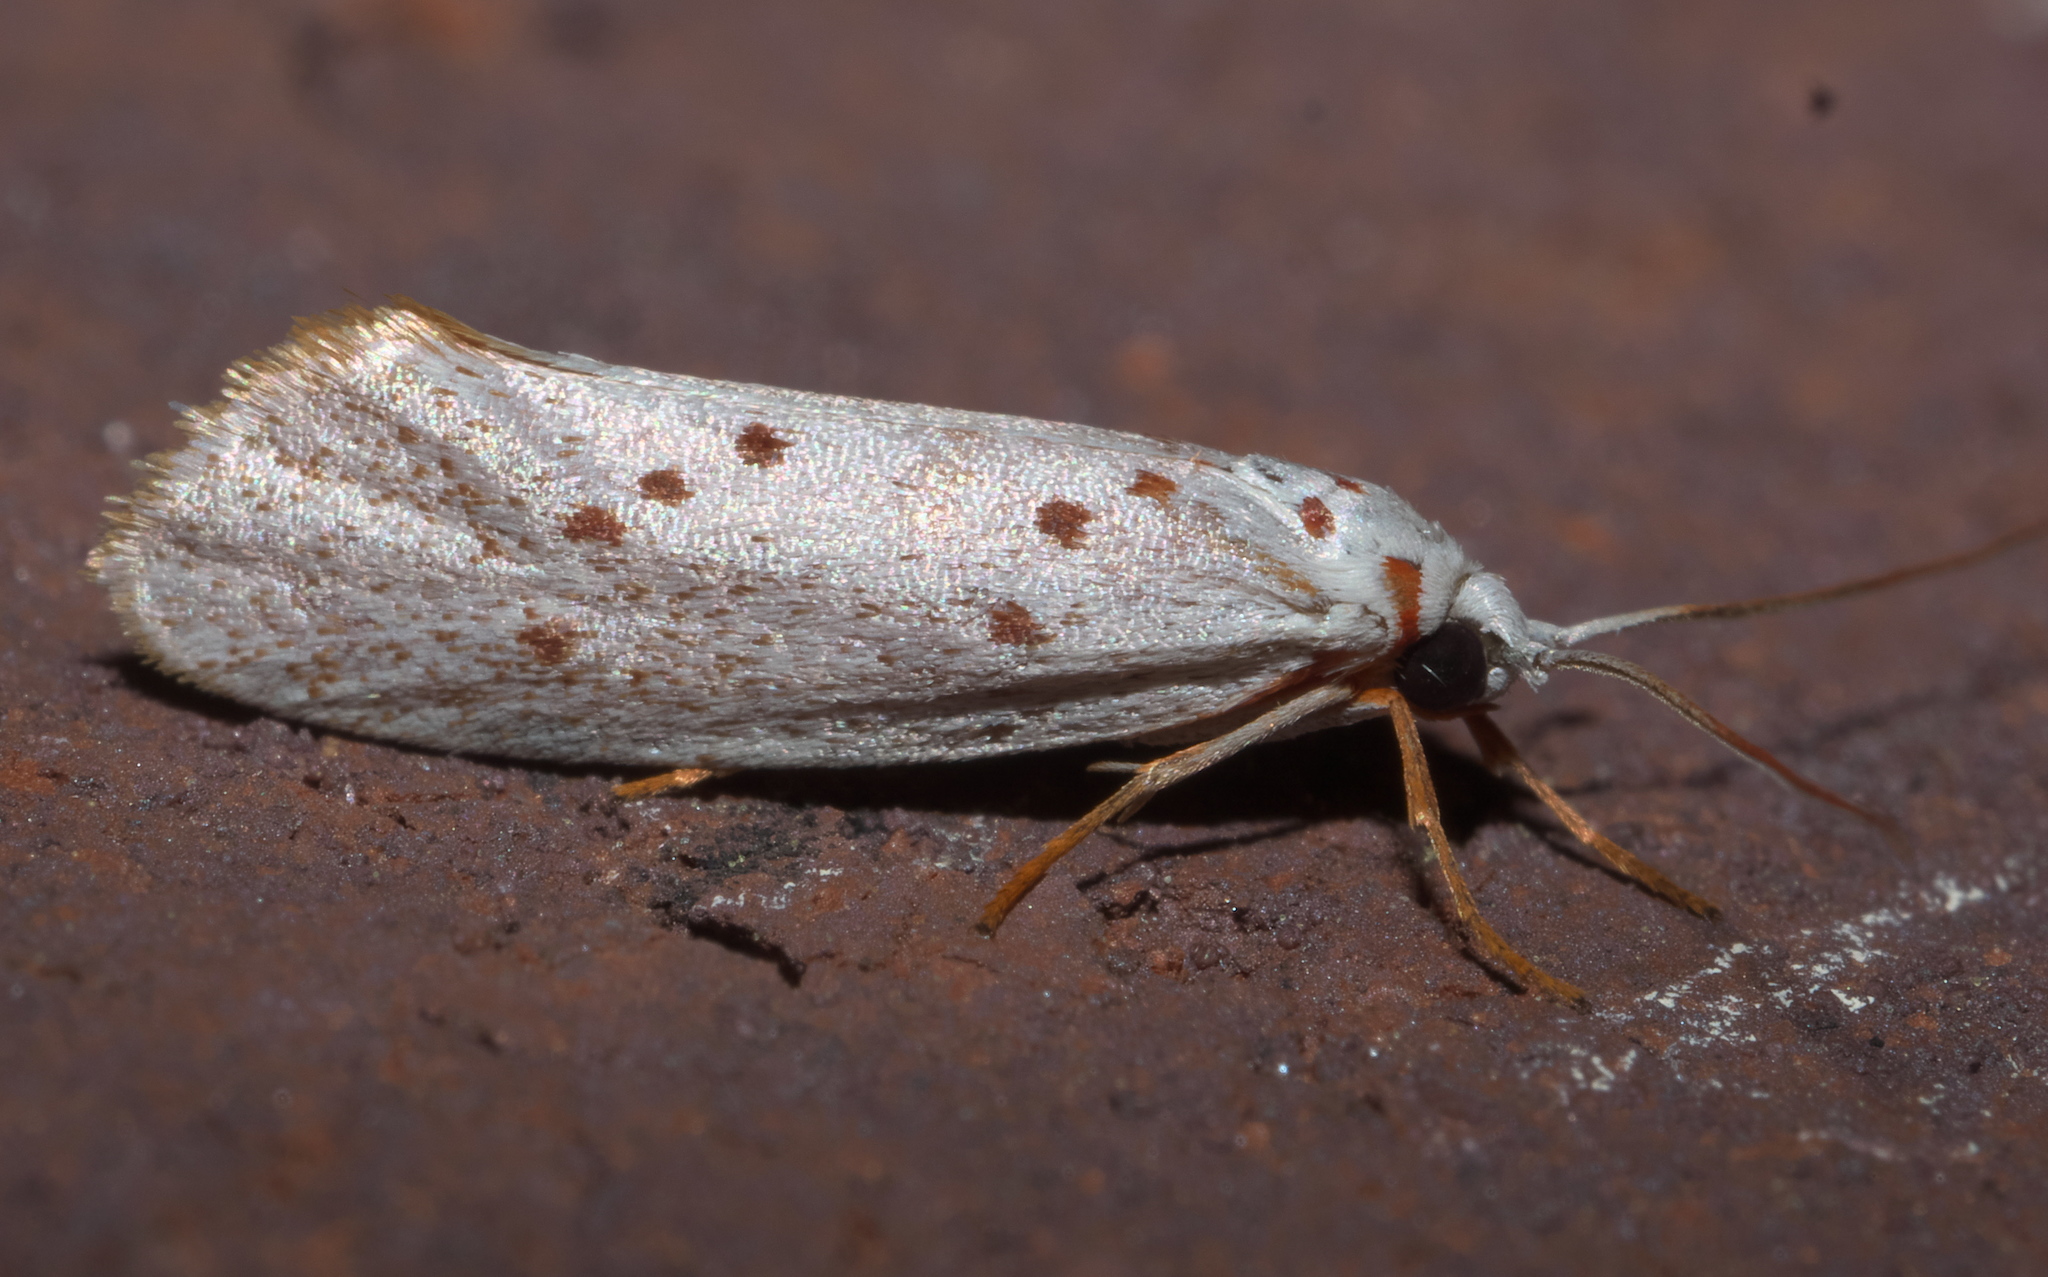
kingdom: Animalia
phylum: Arthropoda
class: Insecta
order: Lepidoptera
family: Lacturidae
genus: Lactura
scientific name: Lactura
